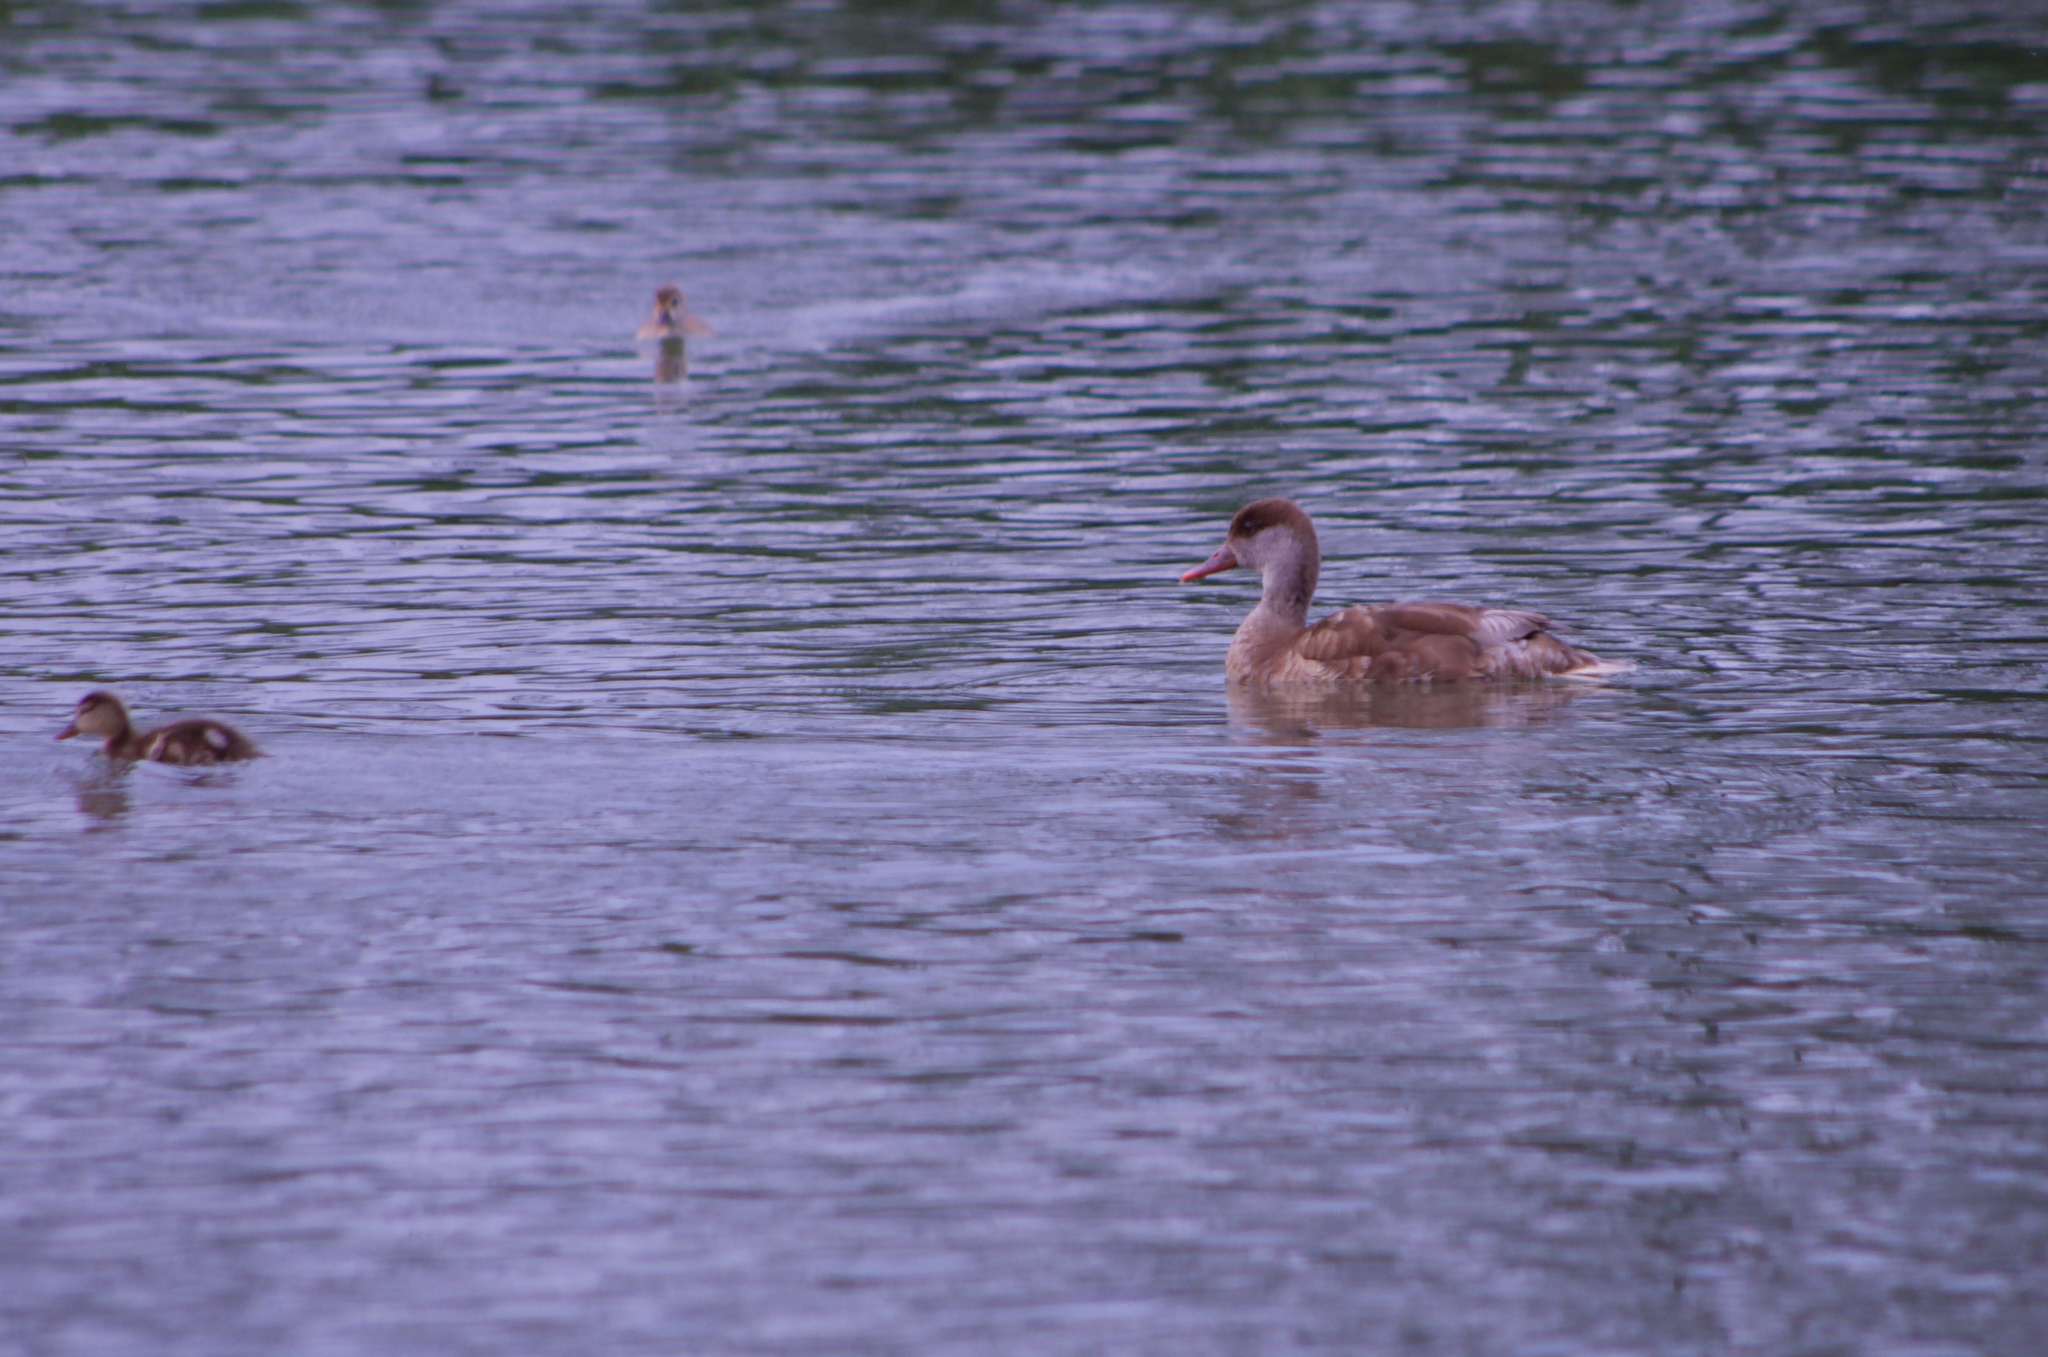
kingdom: Animalia
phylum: Chordata
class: Aves
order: Anseriformes
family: Anatidae
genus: Netta
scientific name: Netta rufina
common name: Red-crested pochard
